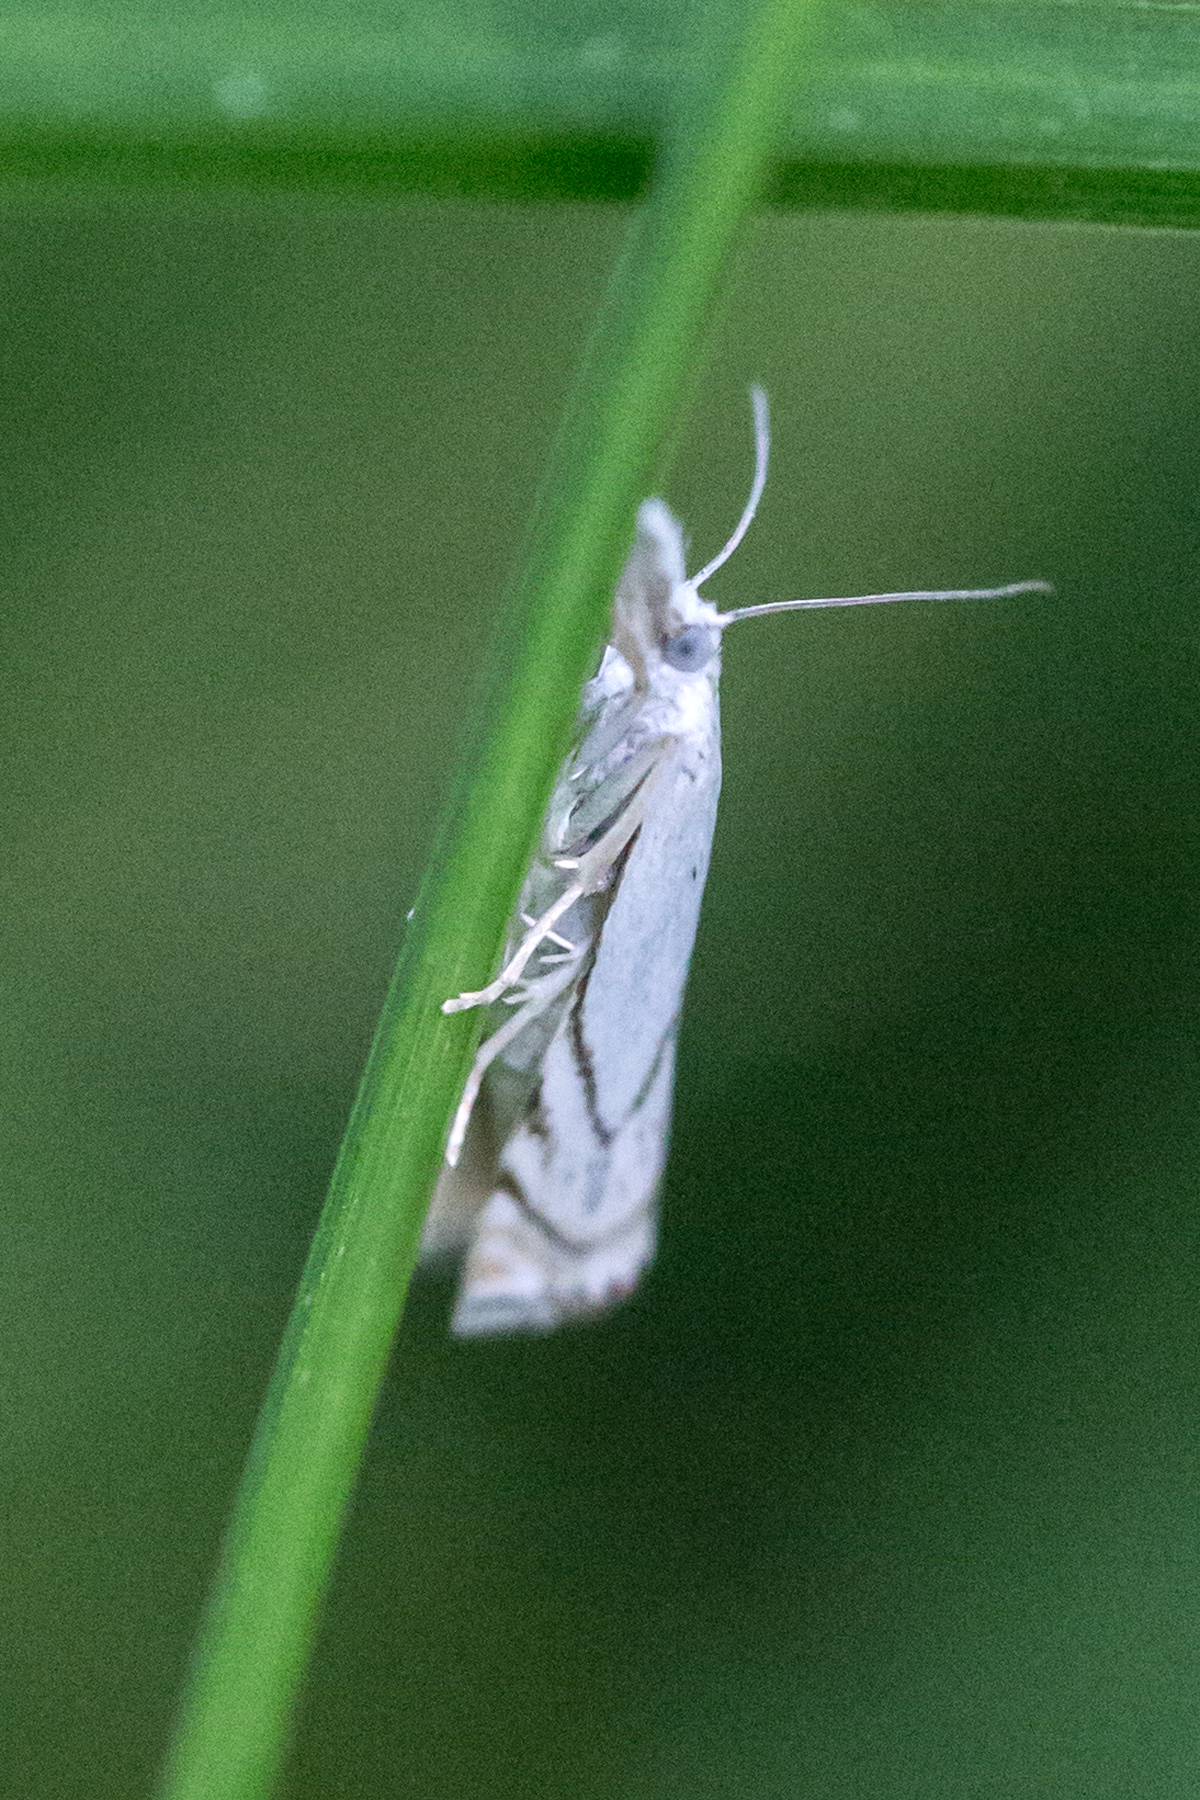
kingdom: Animalia
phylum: Arthropoda
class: Insecta
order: Lepidoptera
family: Crambidae
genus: Crambus
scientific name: Crambus albellus
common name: Small white grass-veneer
